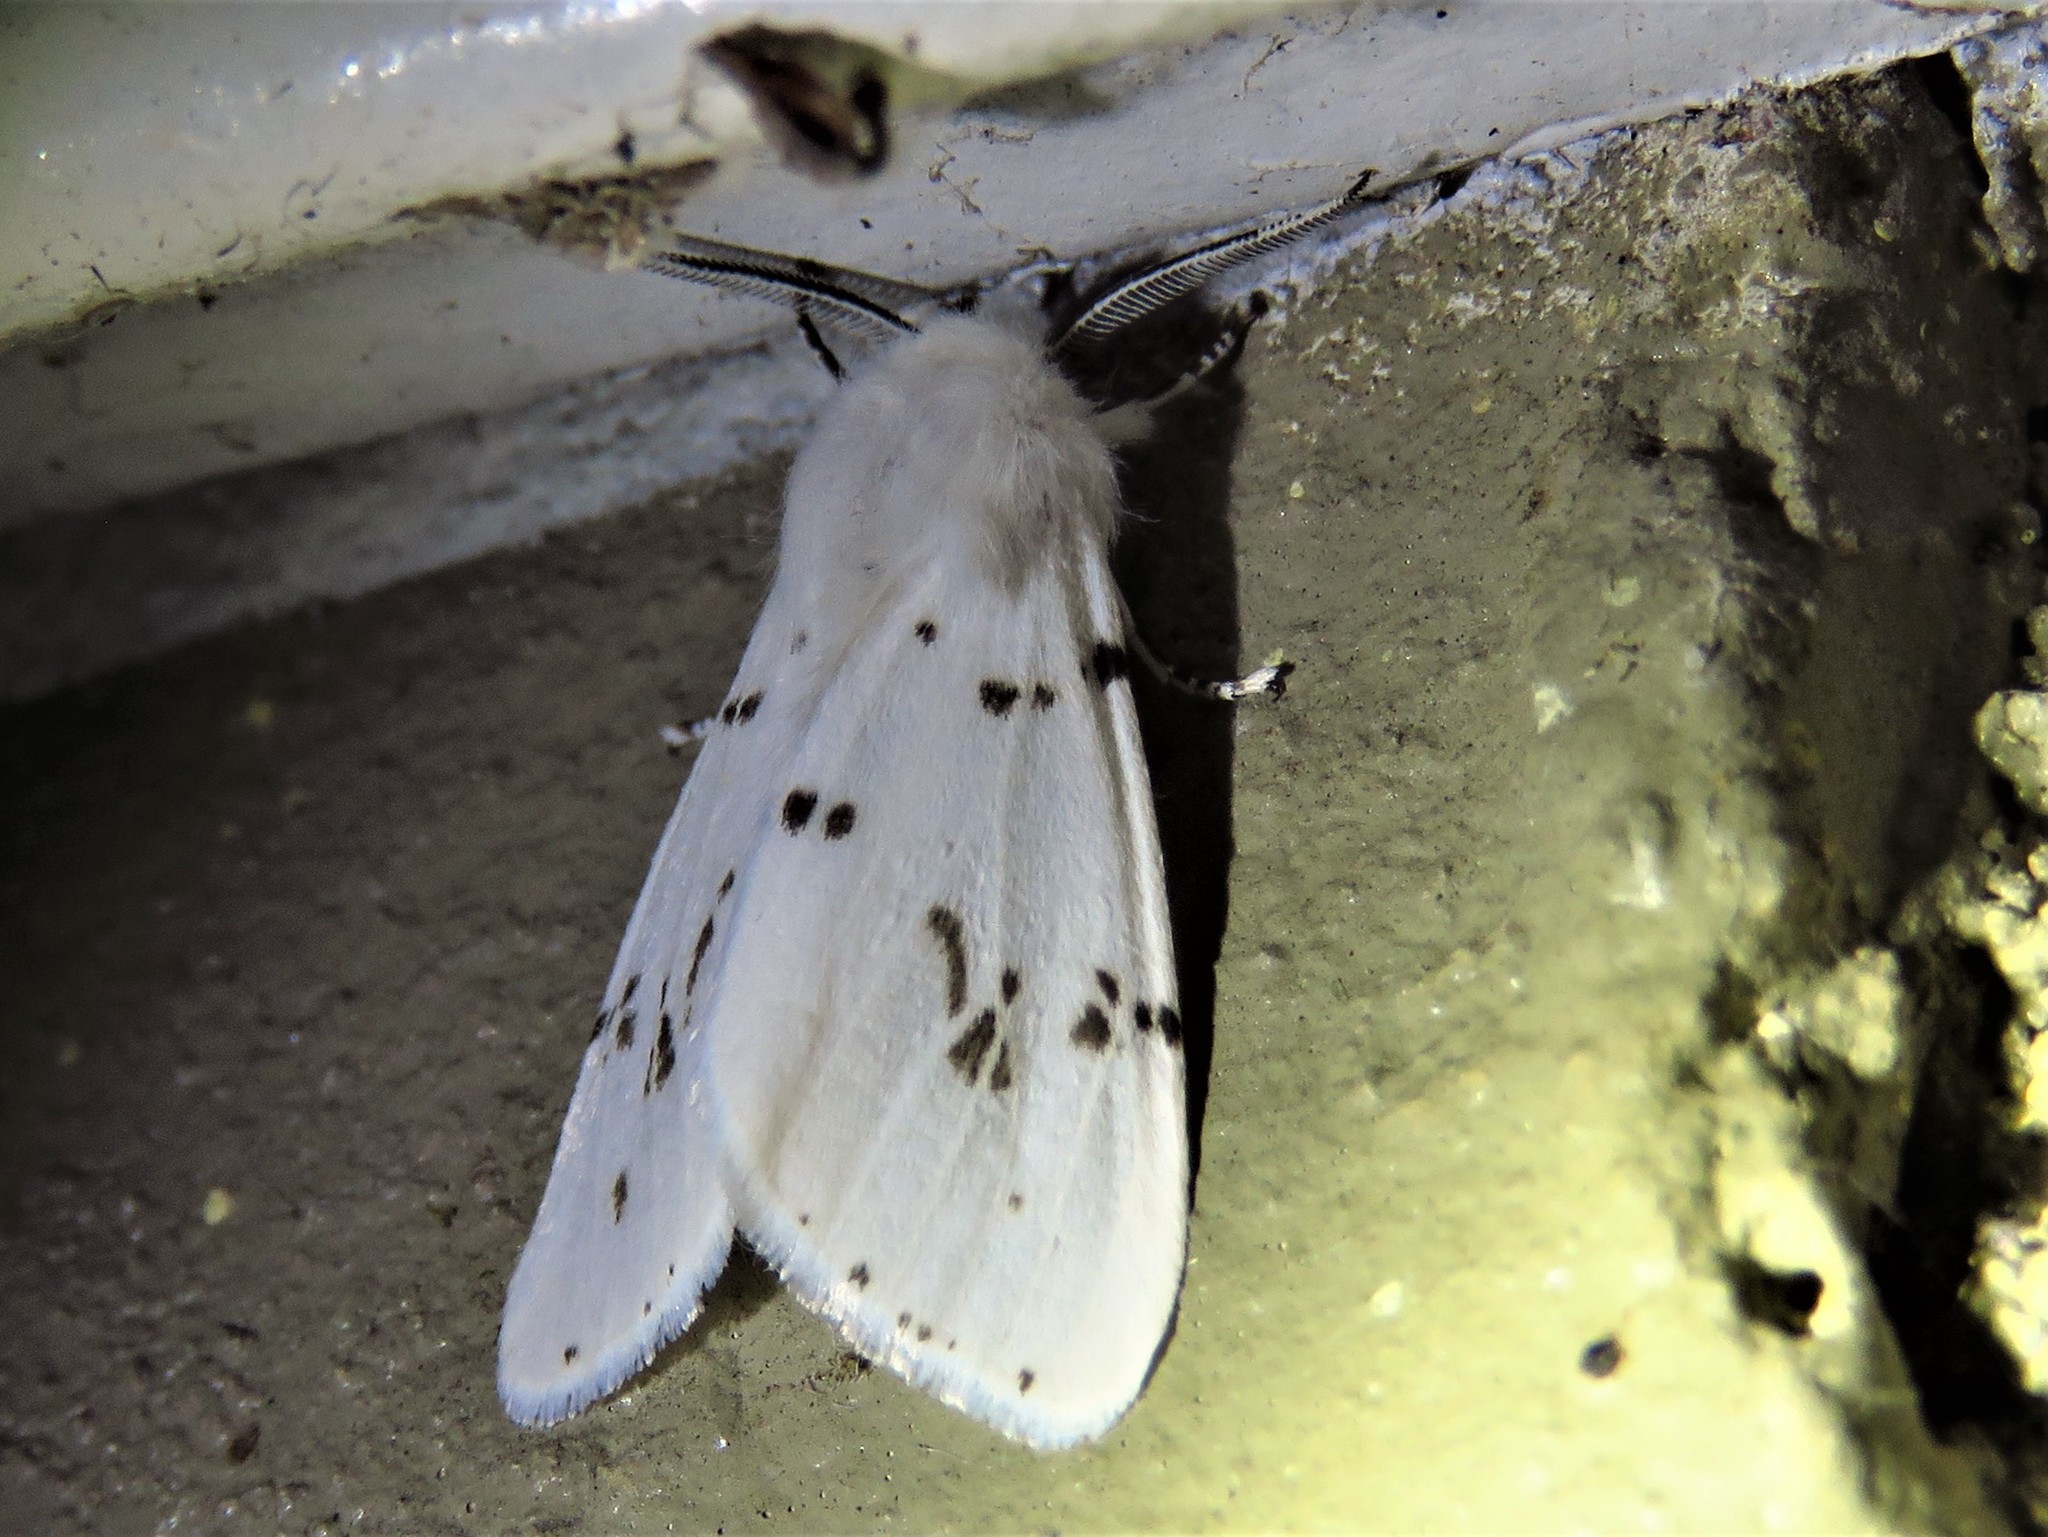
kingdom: Animalia
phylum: Arthropoda
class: Insecta
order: Lepidoptera
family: Erebidae
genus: Hyphantria
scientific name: Hyphantria cunea
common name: American white moth
